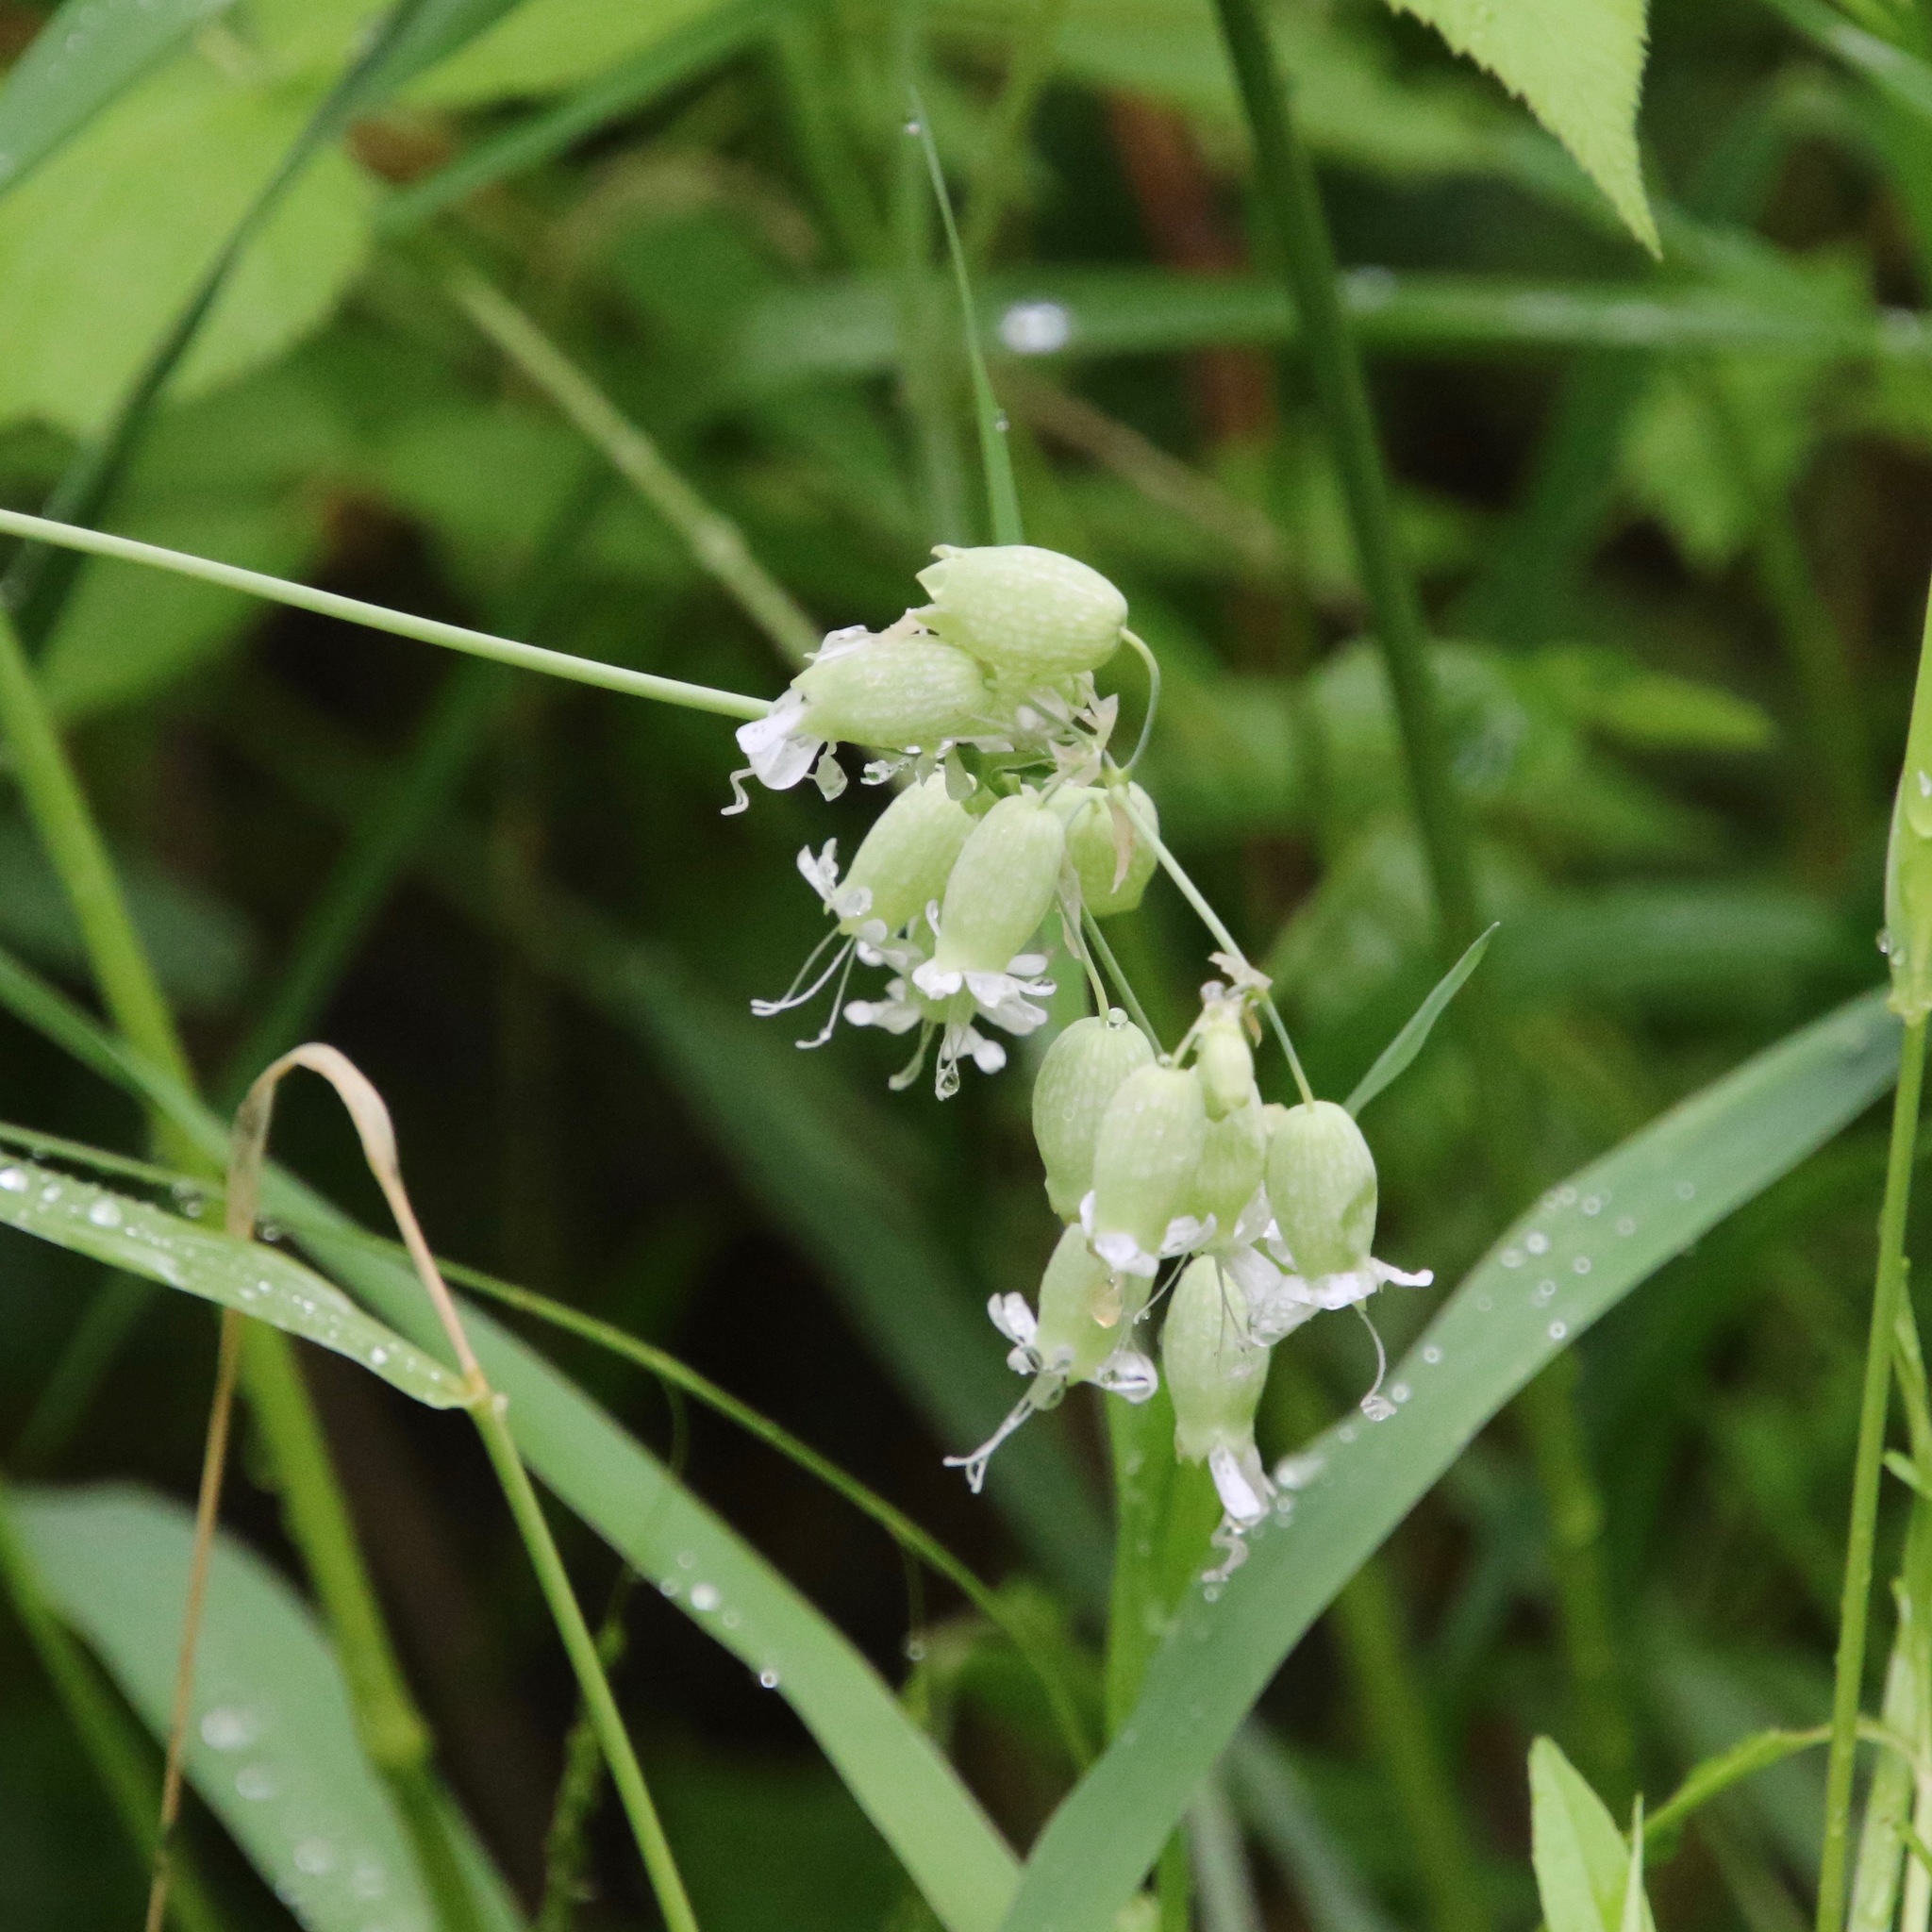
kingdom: Plantae
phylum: Tracheophyta
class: Magnoliopsida
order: Caryophyllales
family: Caryophyllaceae
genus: Silene
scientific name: Silene vulgaris
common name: Bladder campion
